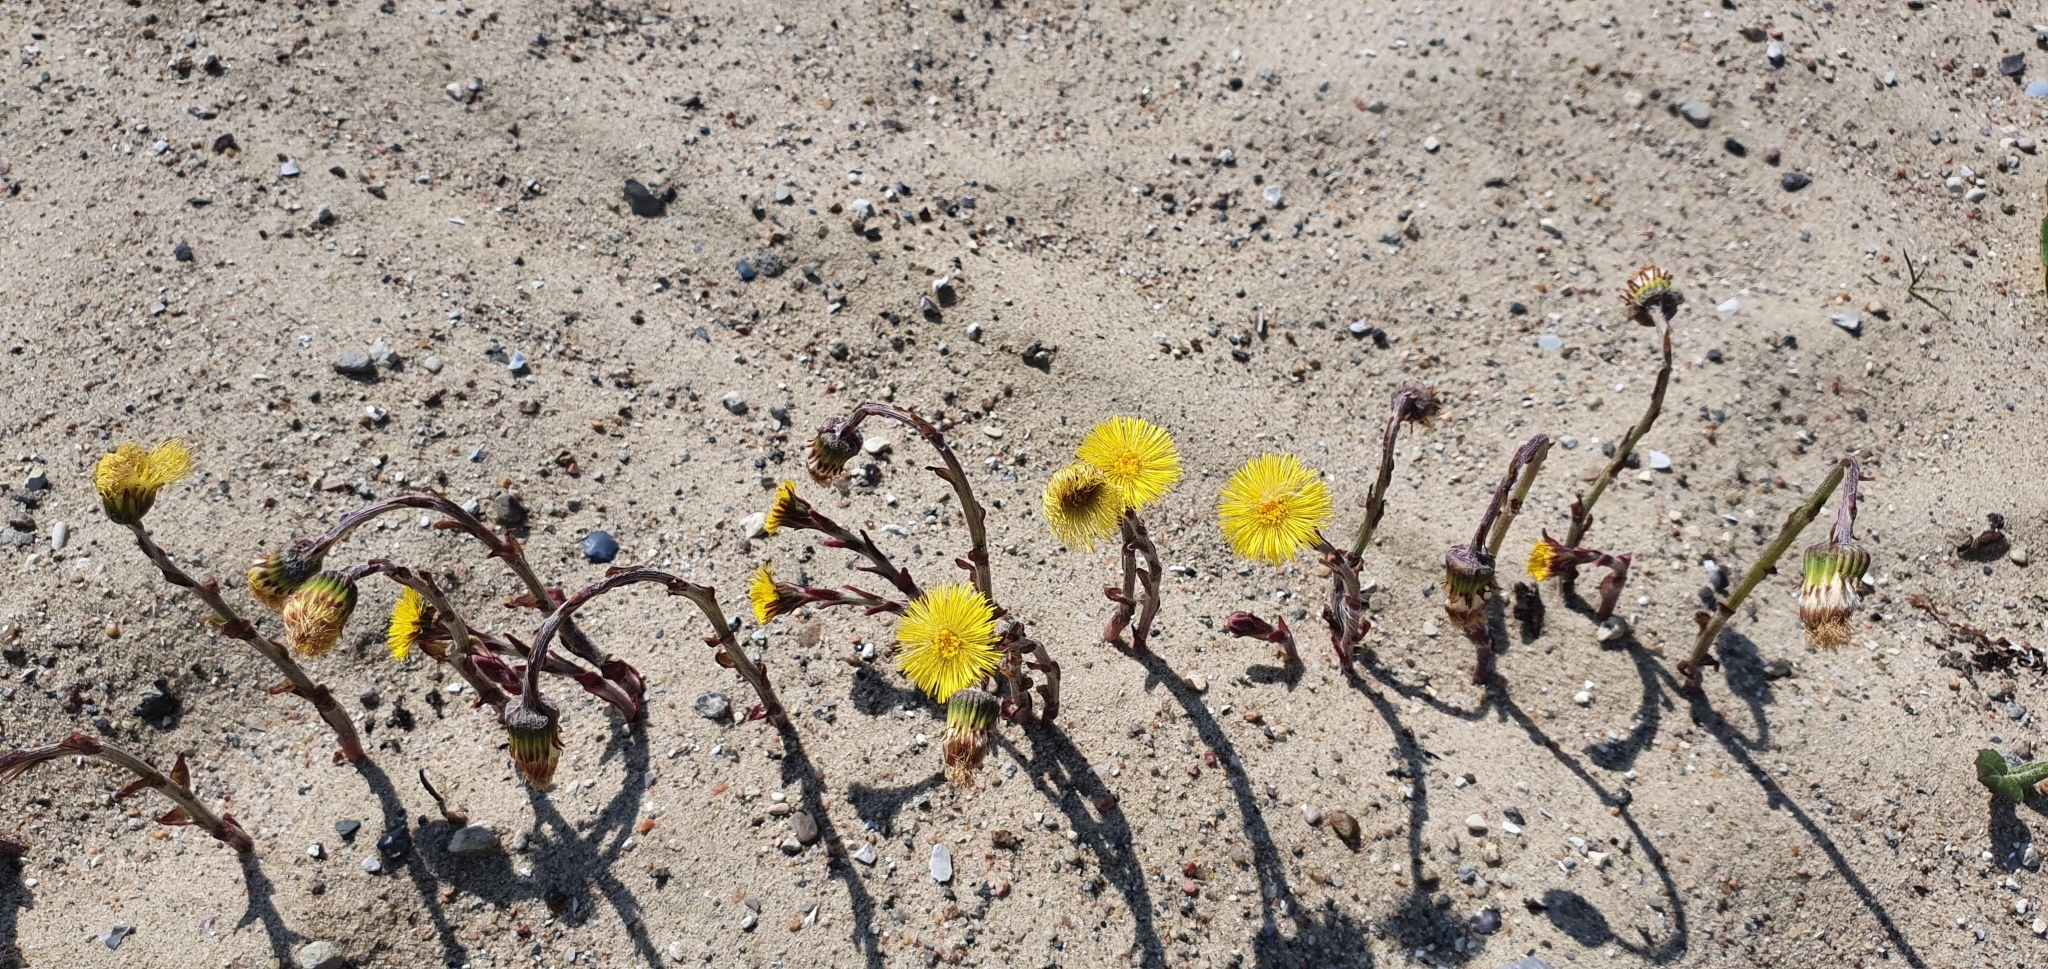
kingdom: Plantae
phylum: Tracheophyta
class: Magnoliopsida
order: Asterales
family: Asteraceae
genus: Tussilago
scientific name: Tussilago farfara
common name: Coltsfoot
